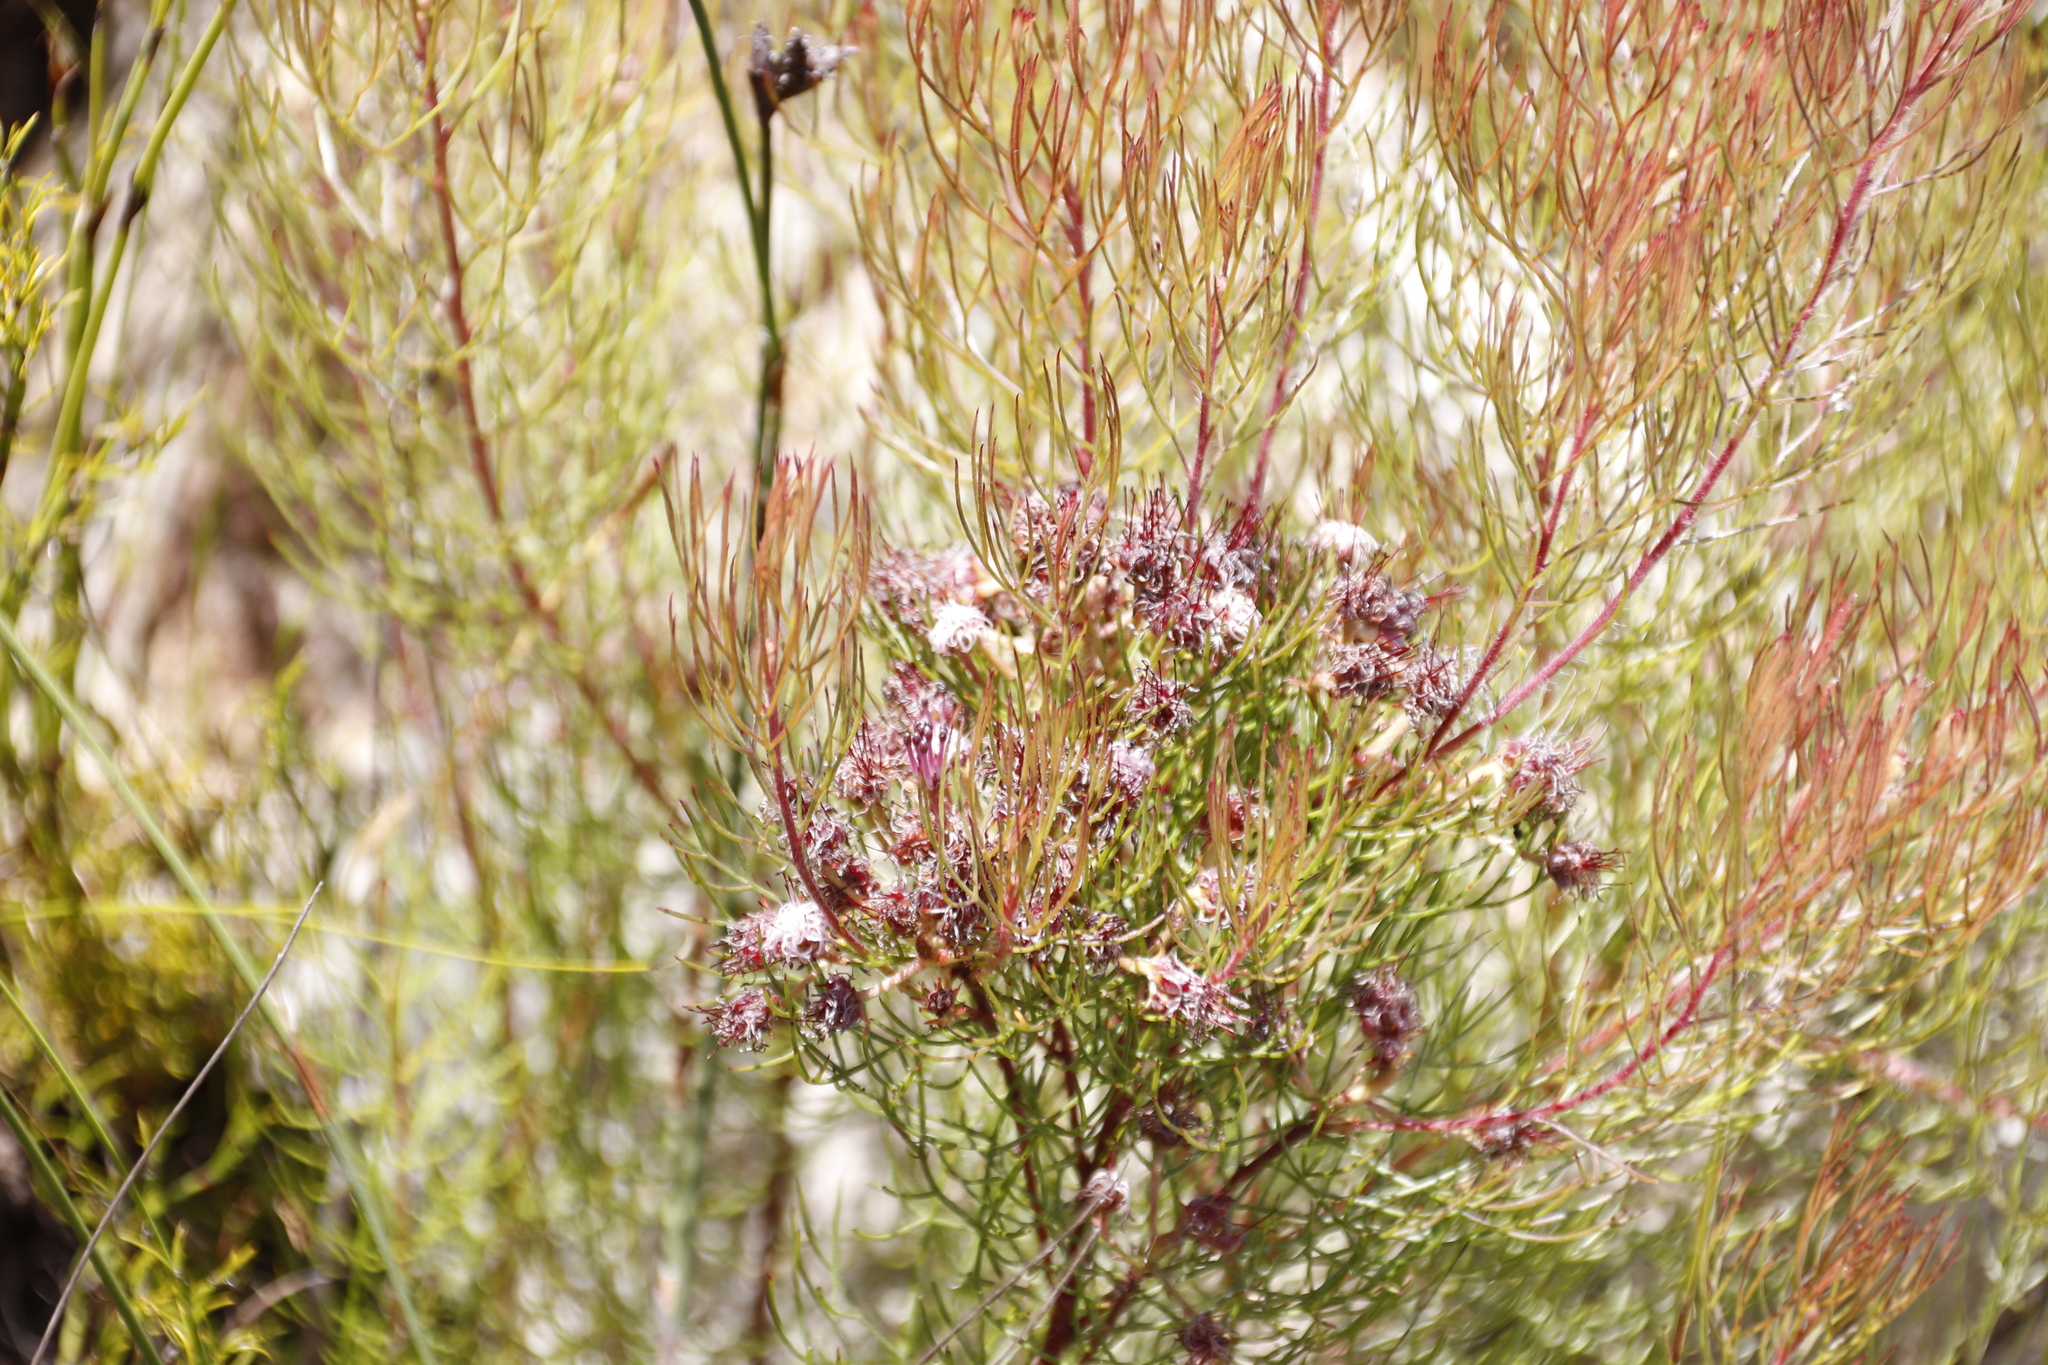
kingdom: Plantae
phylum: Tracheophyta
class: Magnoliopsida
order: Proteales
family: Proteaceae
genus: Serruria
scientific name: Serruria fasciflora
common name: Common pin spiderhead
